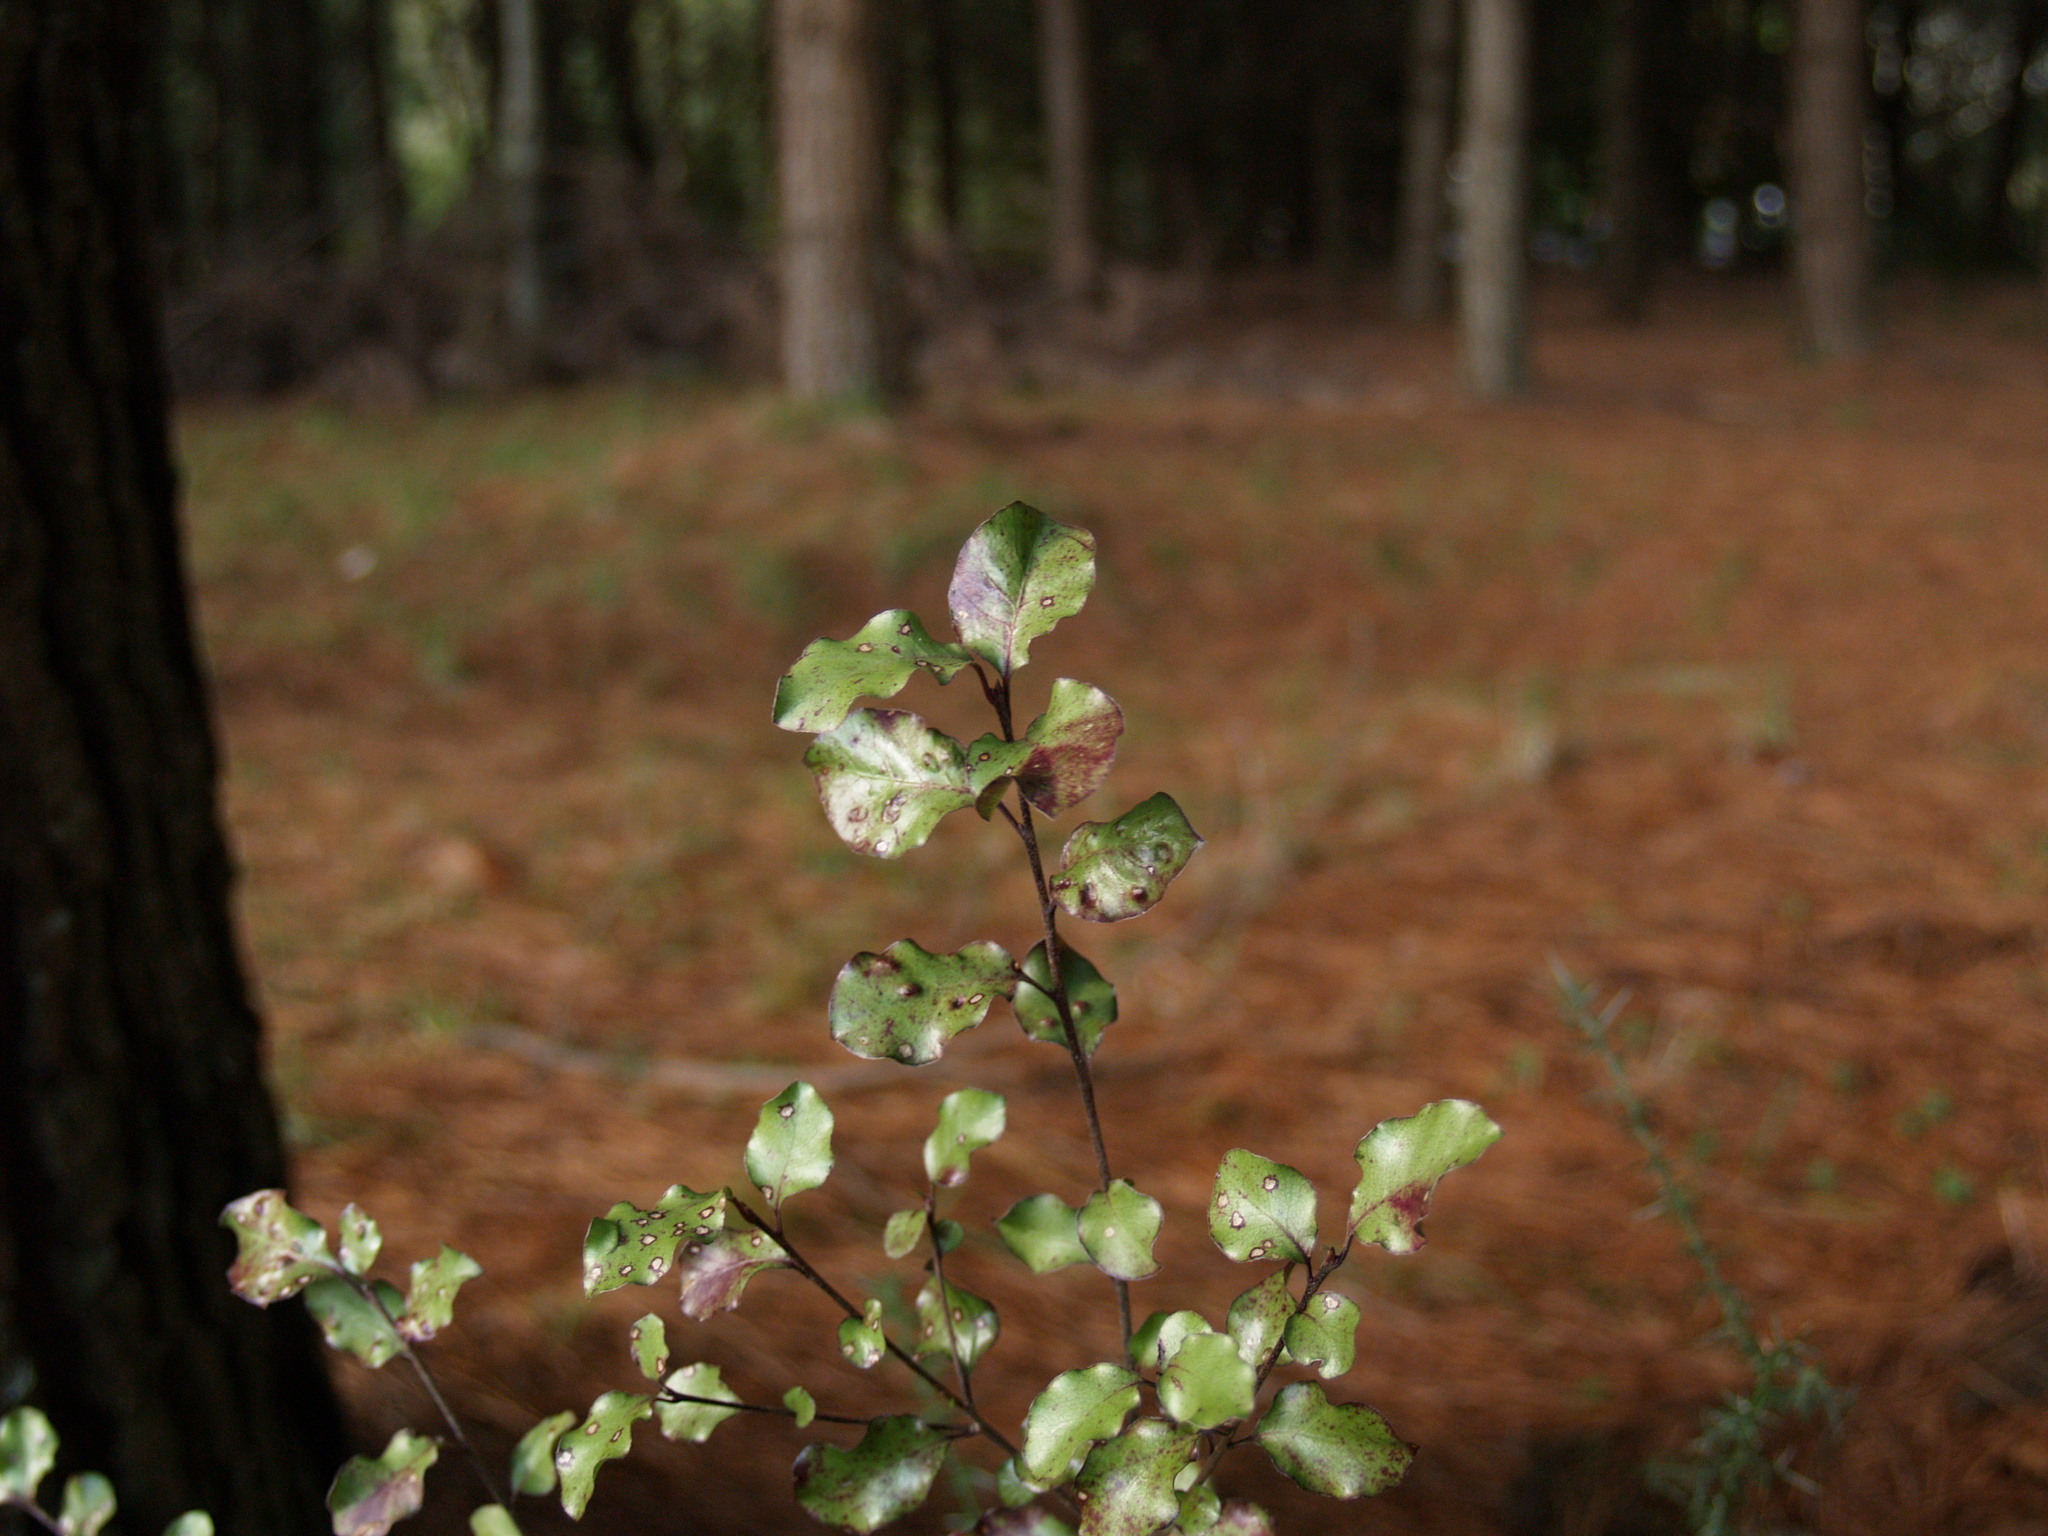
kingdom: Plantae
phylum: Tracheophyta
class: Magnoliopsida
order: Apiales
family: Pittosporaceae
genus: Pittosporum
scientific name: Pittosporum tenuifolium
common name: Kohuhu
